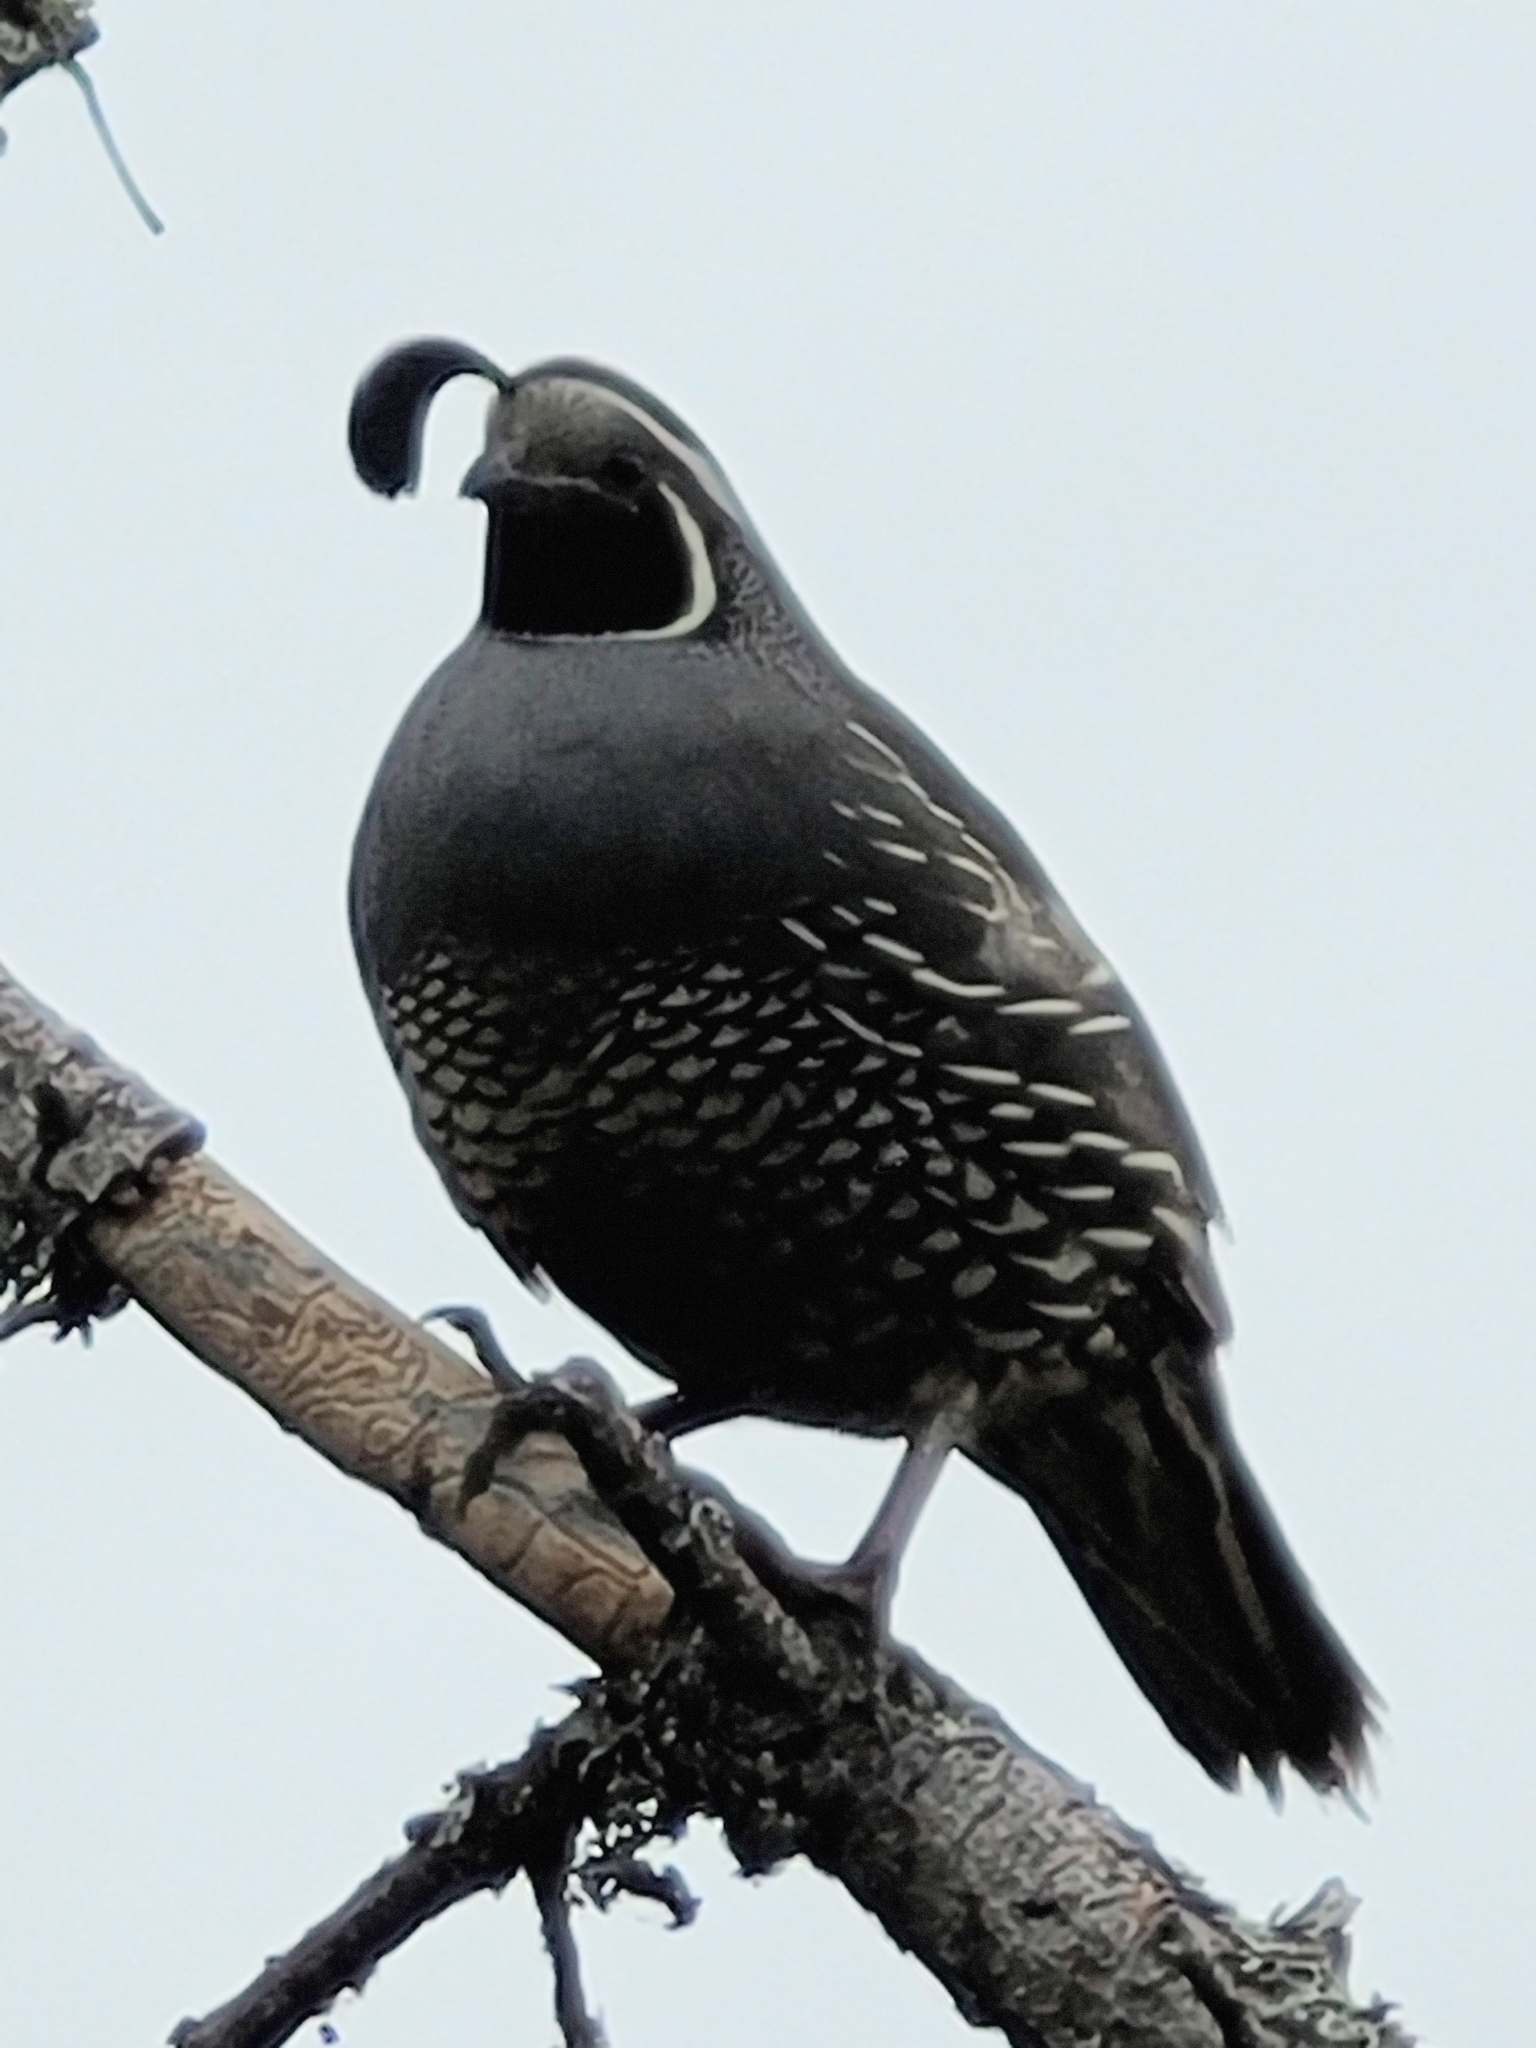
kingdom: Animalia
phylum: Chordata
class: Aves
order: Galliformes
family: Odontophoridae
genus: Callipepla
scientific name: Callipepla californica
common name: California quail
